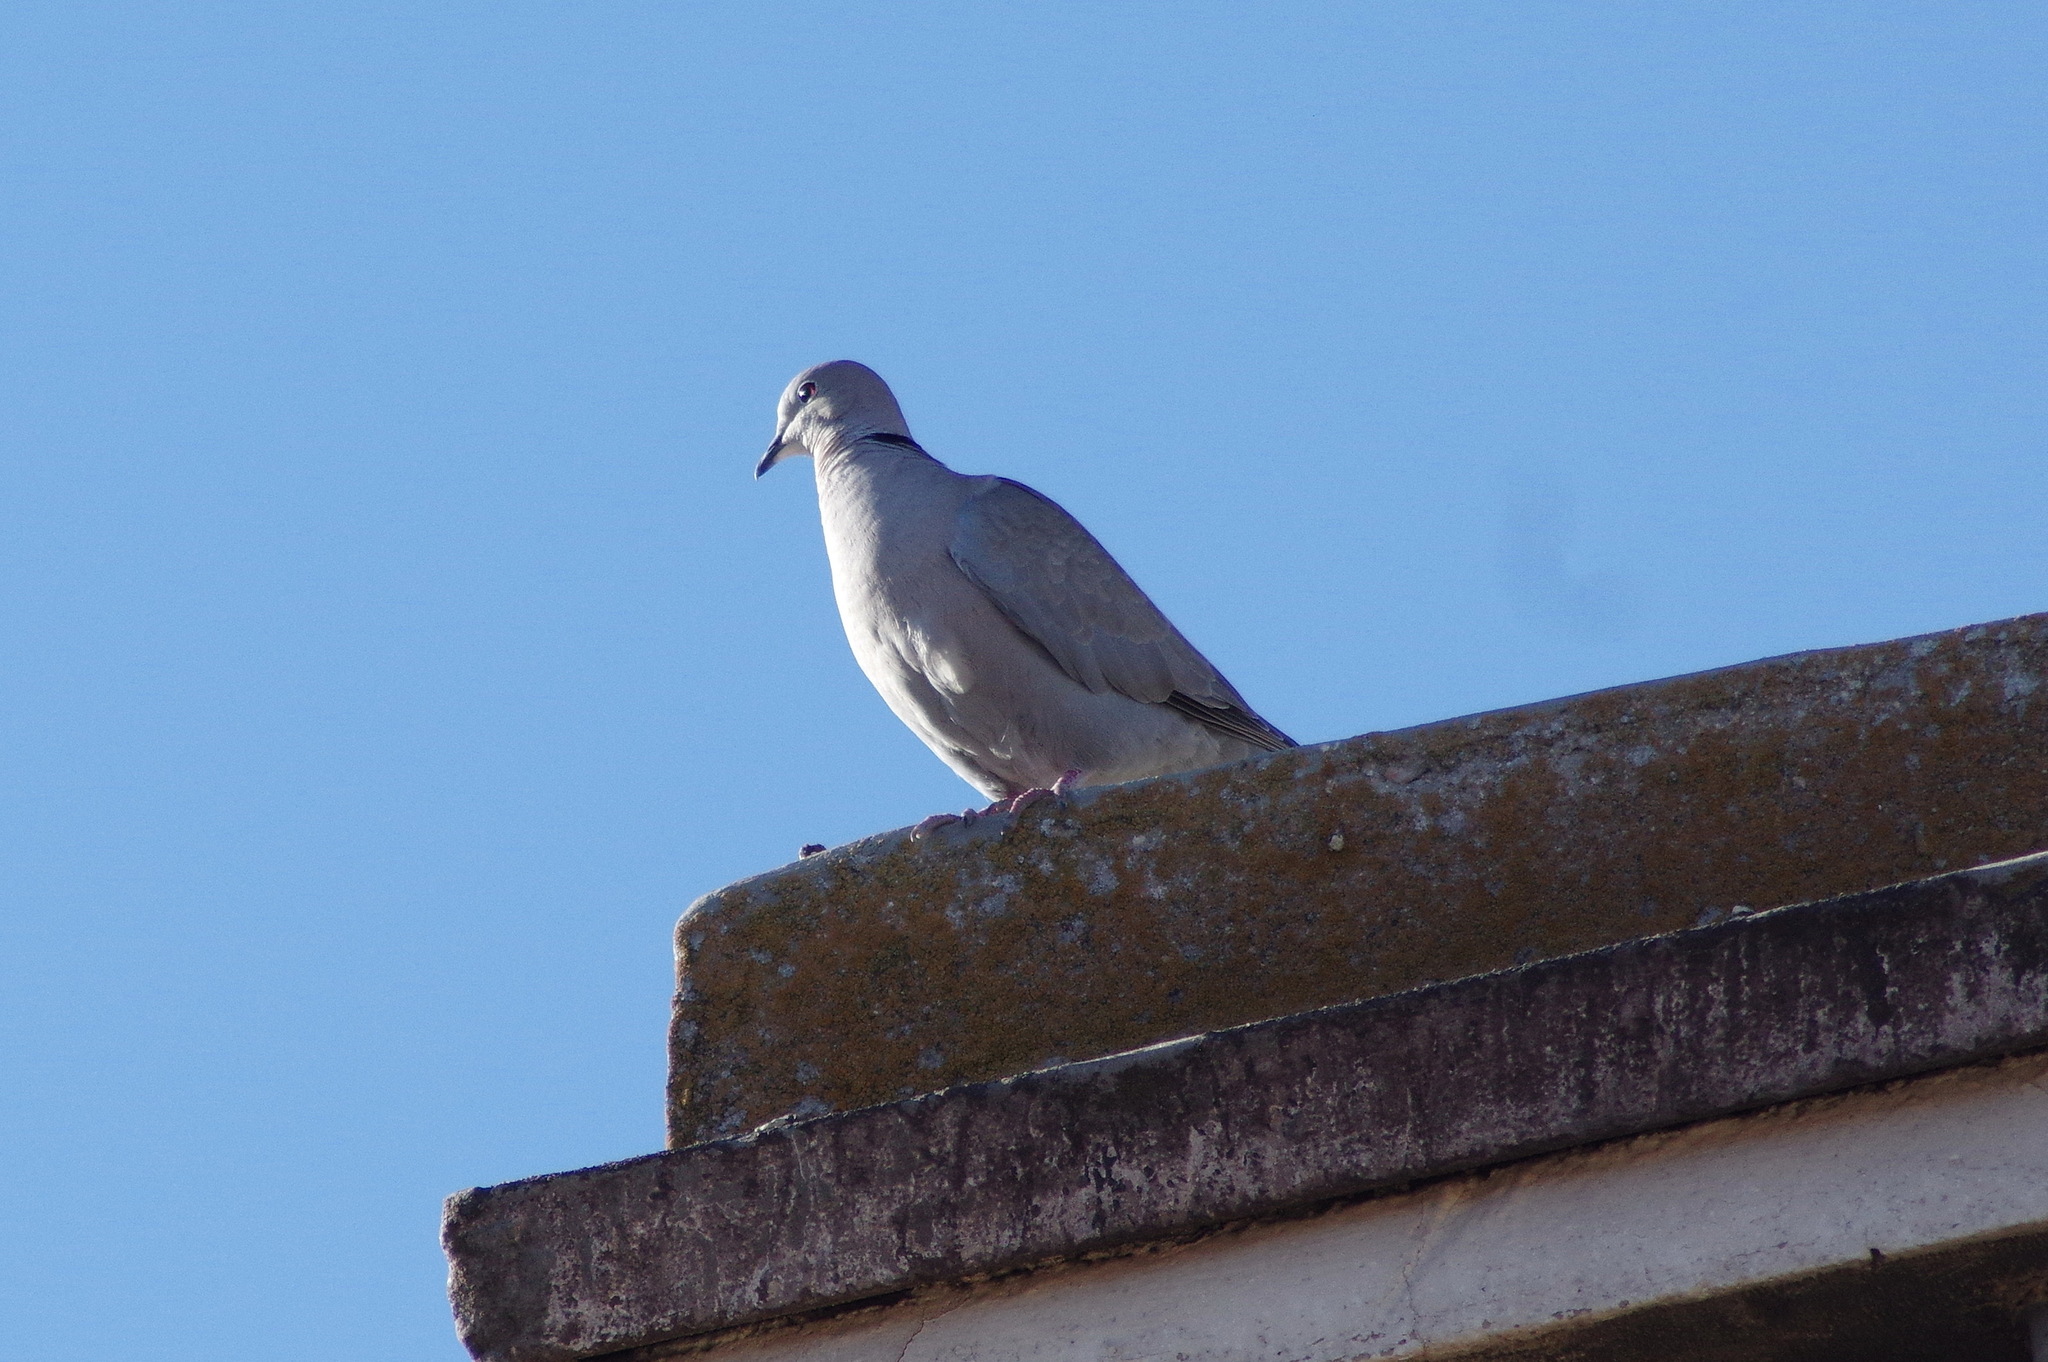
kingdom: Animalia
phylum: Chordata
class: Aves
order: Columbiformes
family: Columbidae
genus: Streptopelia
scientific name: Streptopelia decaocto
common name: Eurasian collared dove
